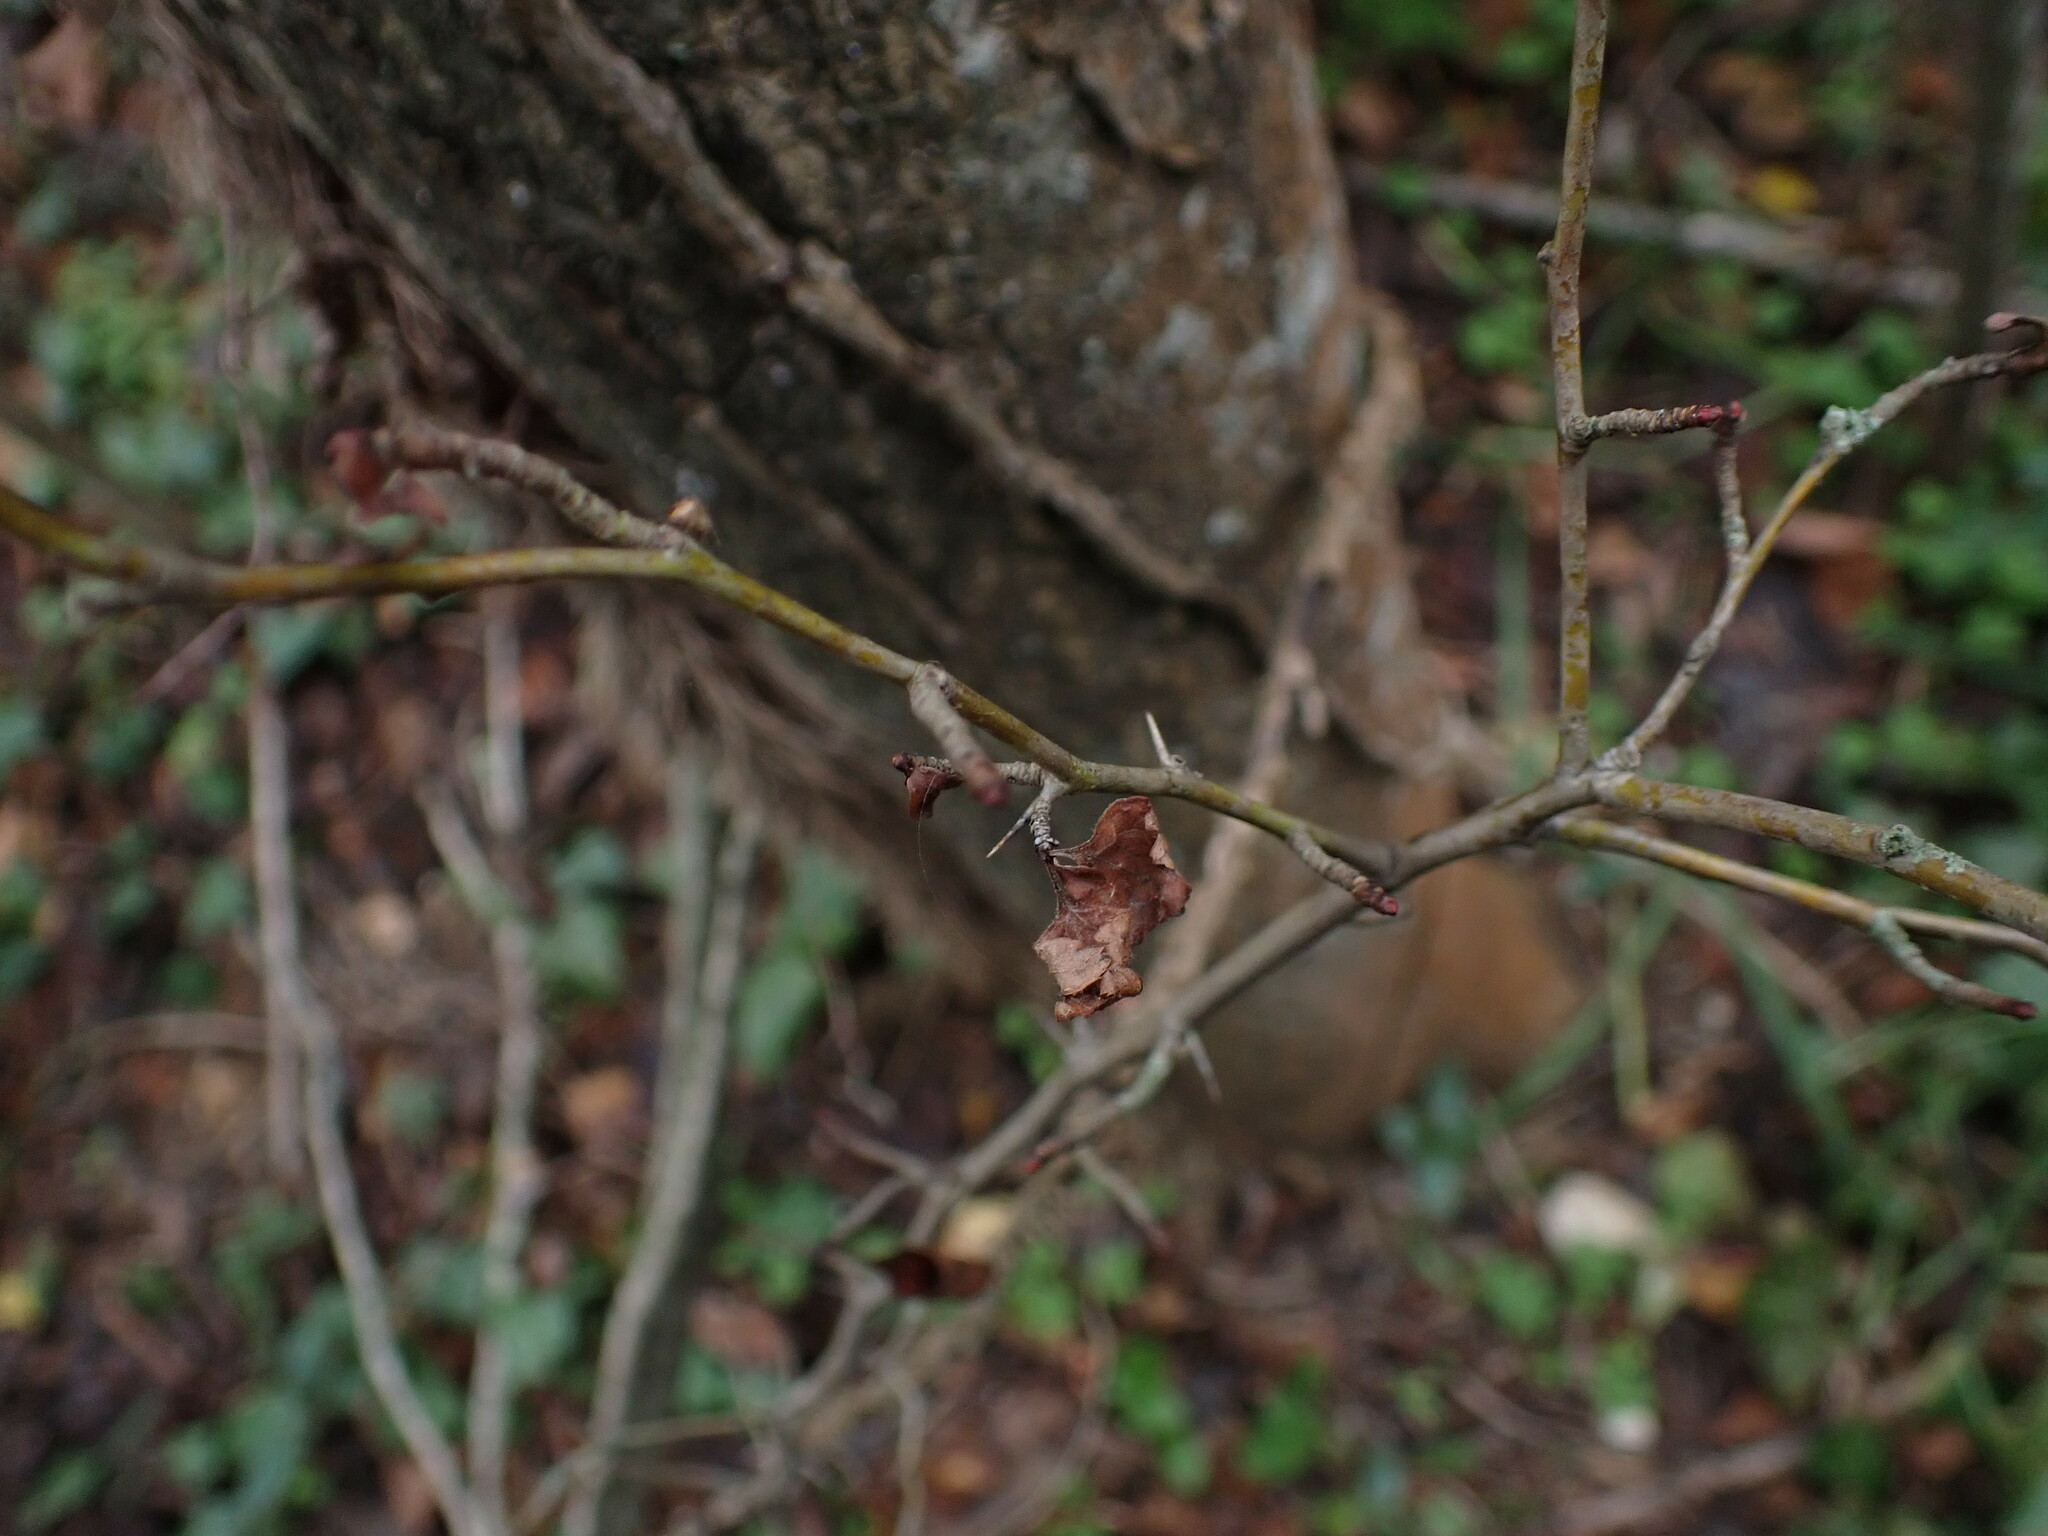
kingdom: Plantae
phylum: Tracheophyta
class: Magnoliopsida
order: Rosales
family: Rosaceae
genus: Crataegus
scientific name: Crataegus monogyna
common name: Hawthorn
